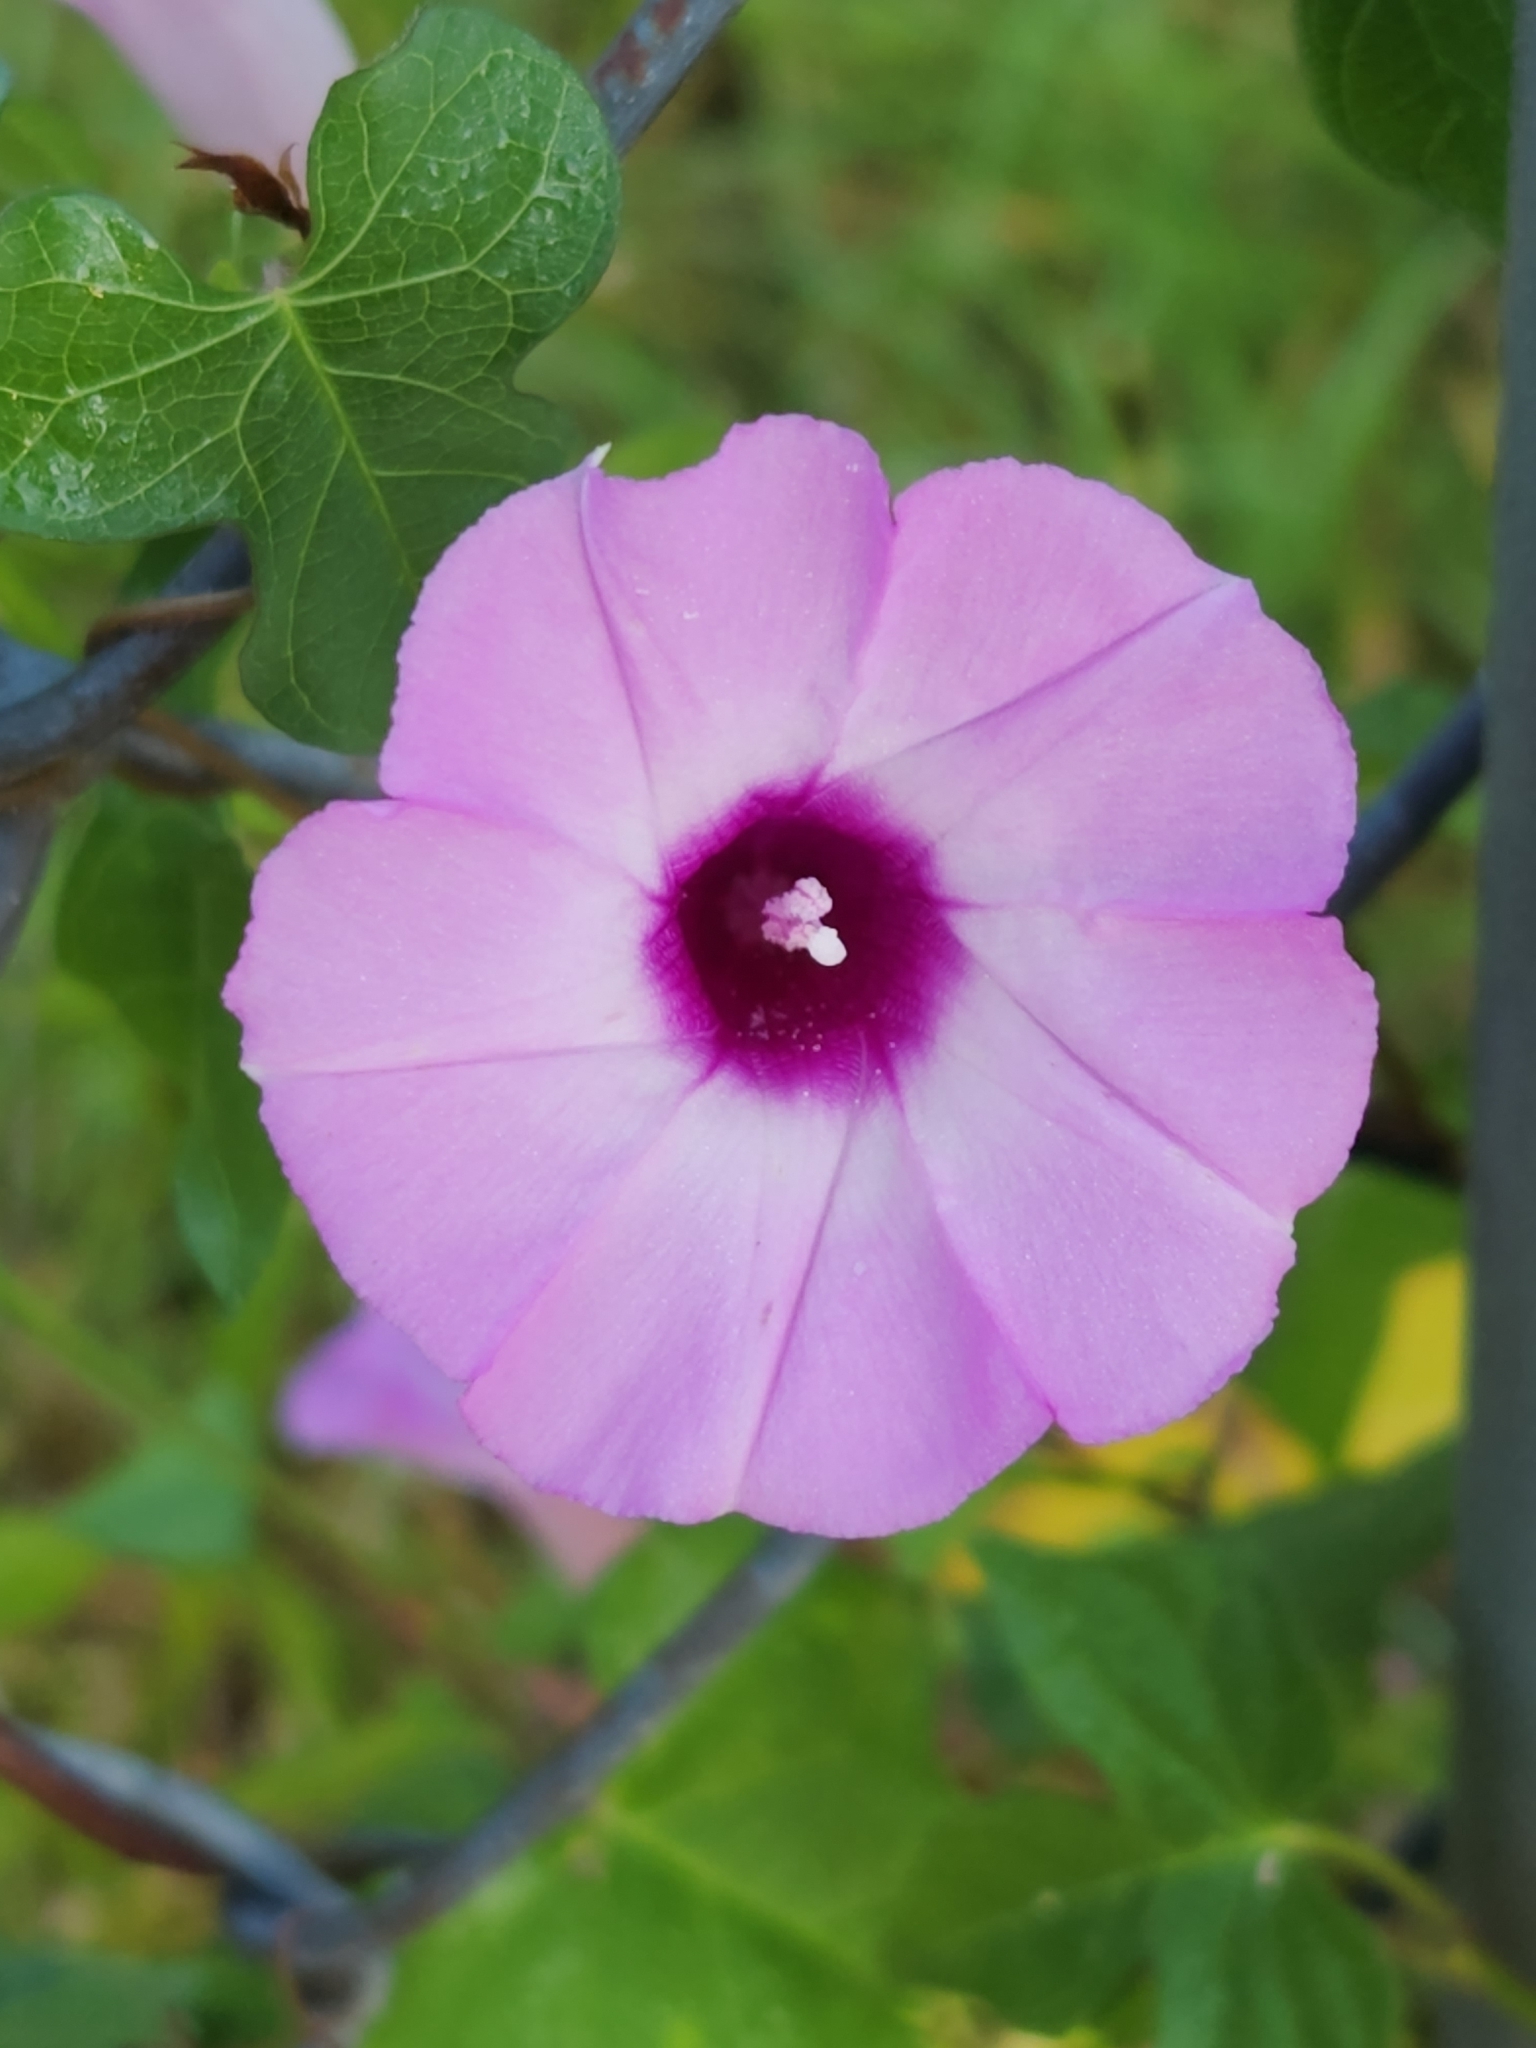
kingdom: Plantae
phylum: Tracheophyta
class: Magnoliopsida
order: Solanales
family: Convolvulaceae
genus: Ipomoea
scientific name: Ipomoea cordatotriloba
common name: Cotton morning glory
